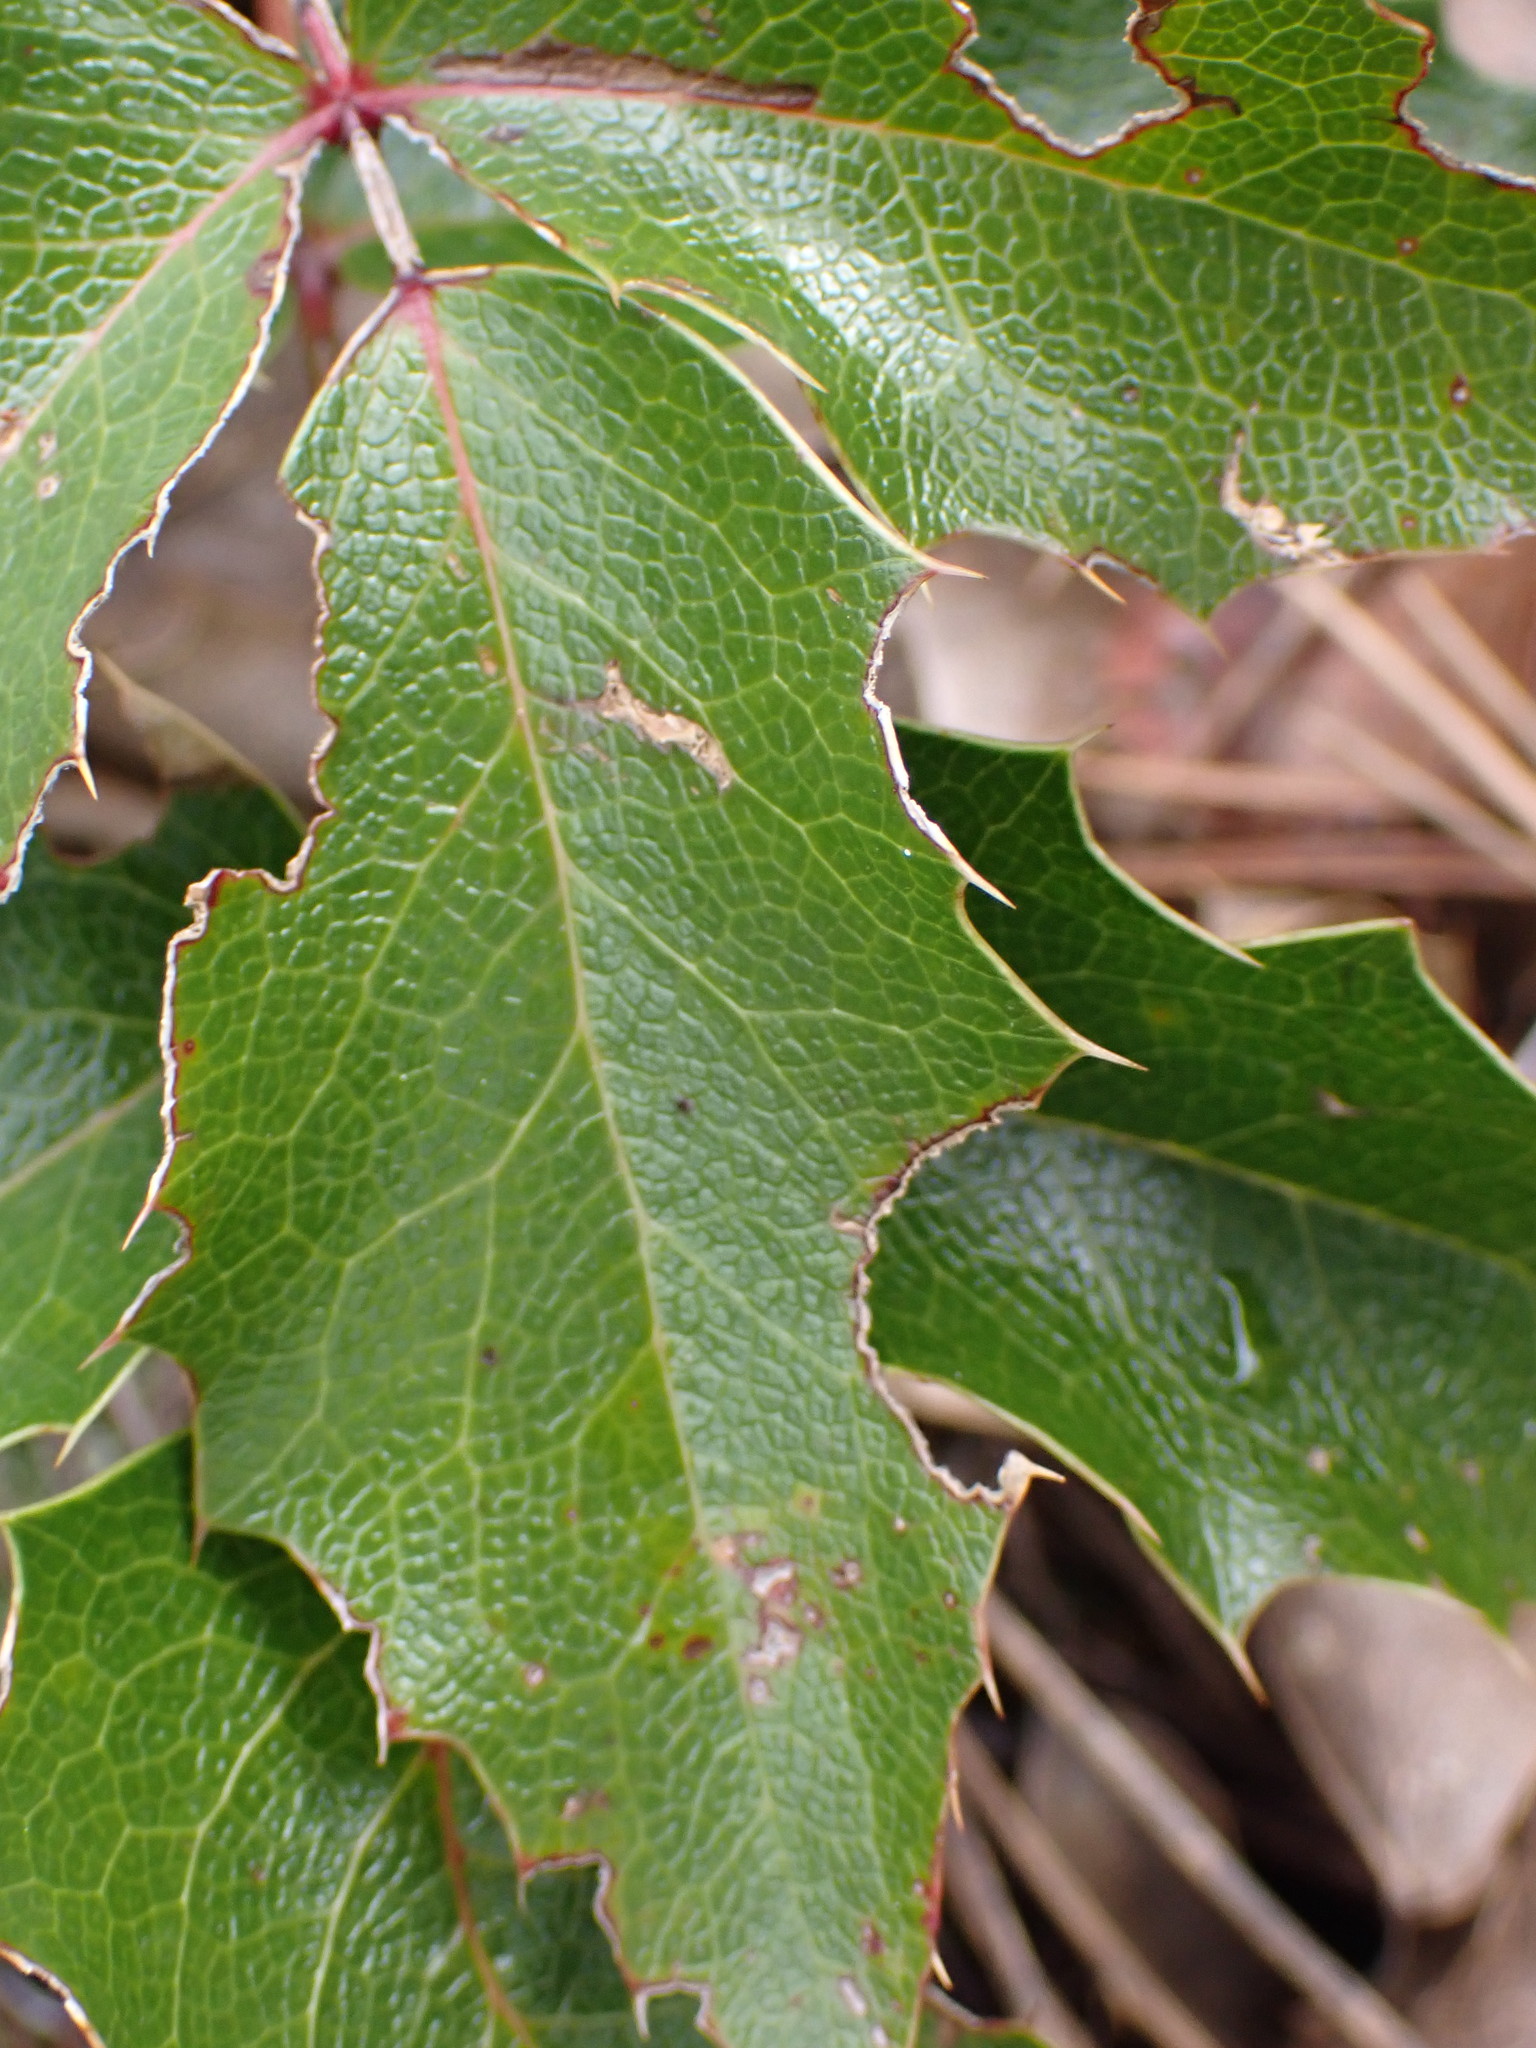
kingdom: Plantae
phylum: Tracheophyta
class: Magnoliopsida
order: Ranunculales
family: Berberidaceae
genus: Mahonia
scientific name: Mahonia aquifolium
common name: Oregon-grape
